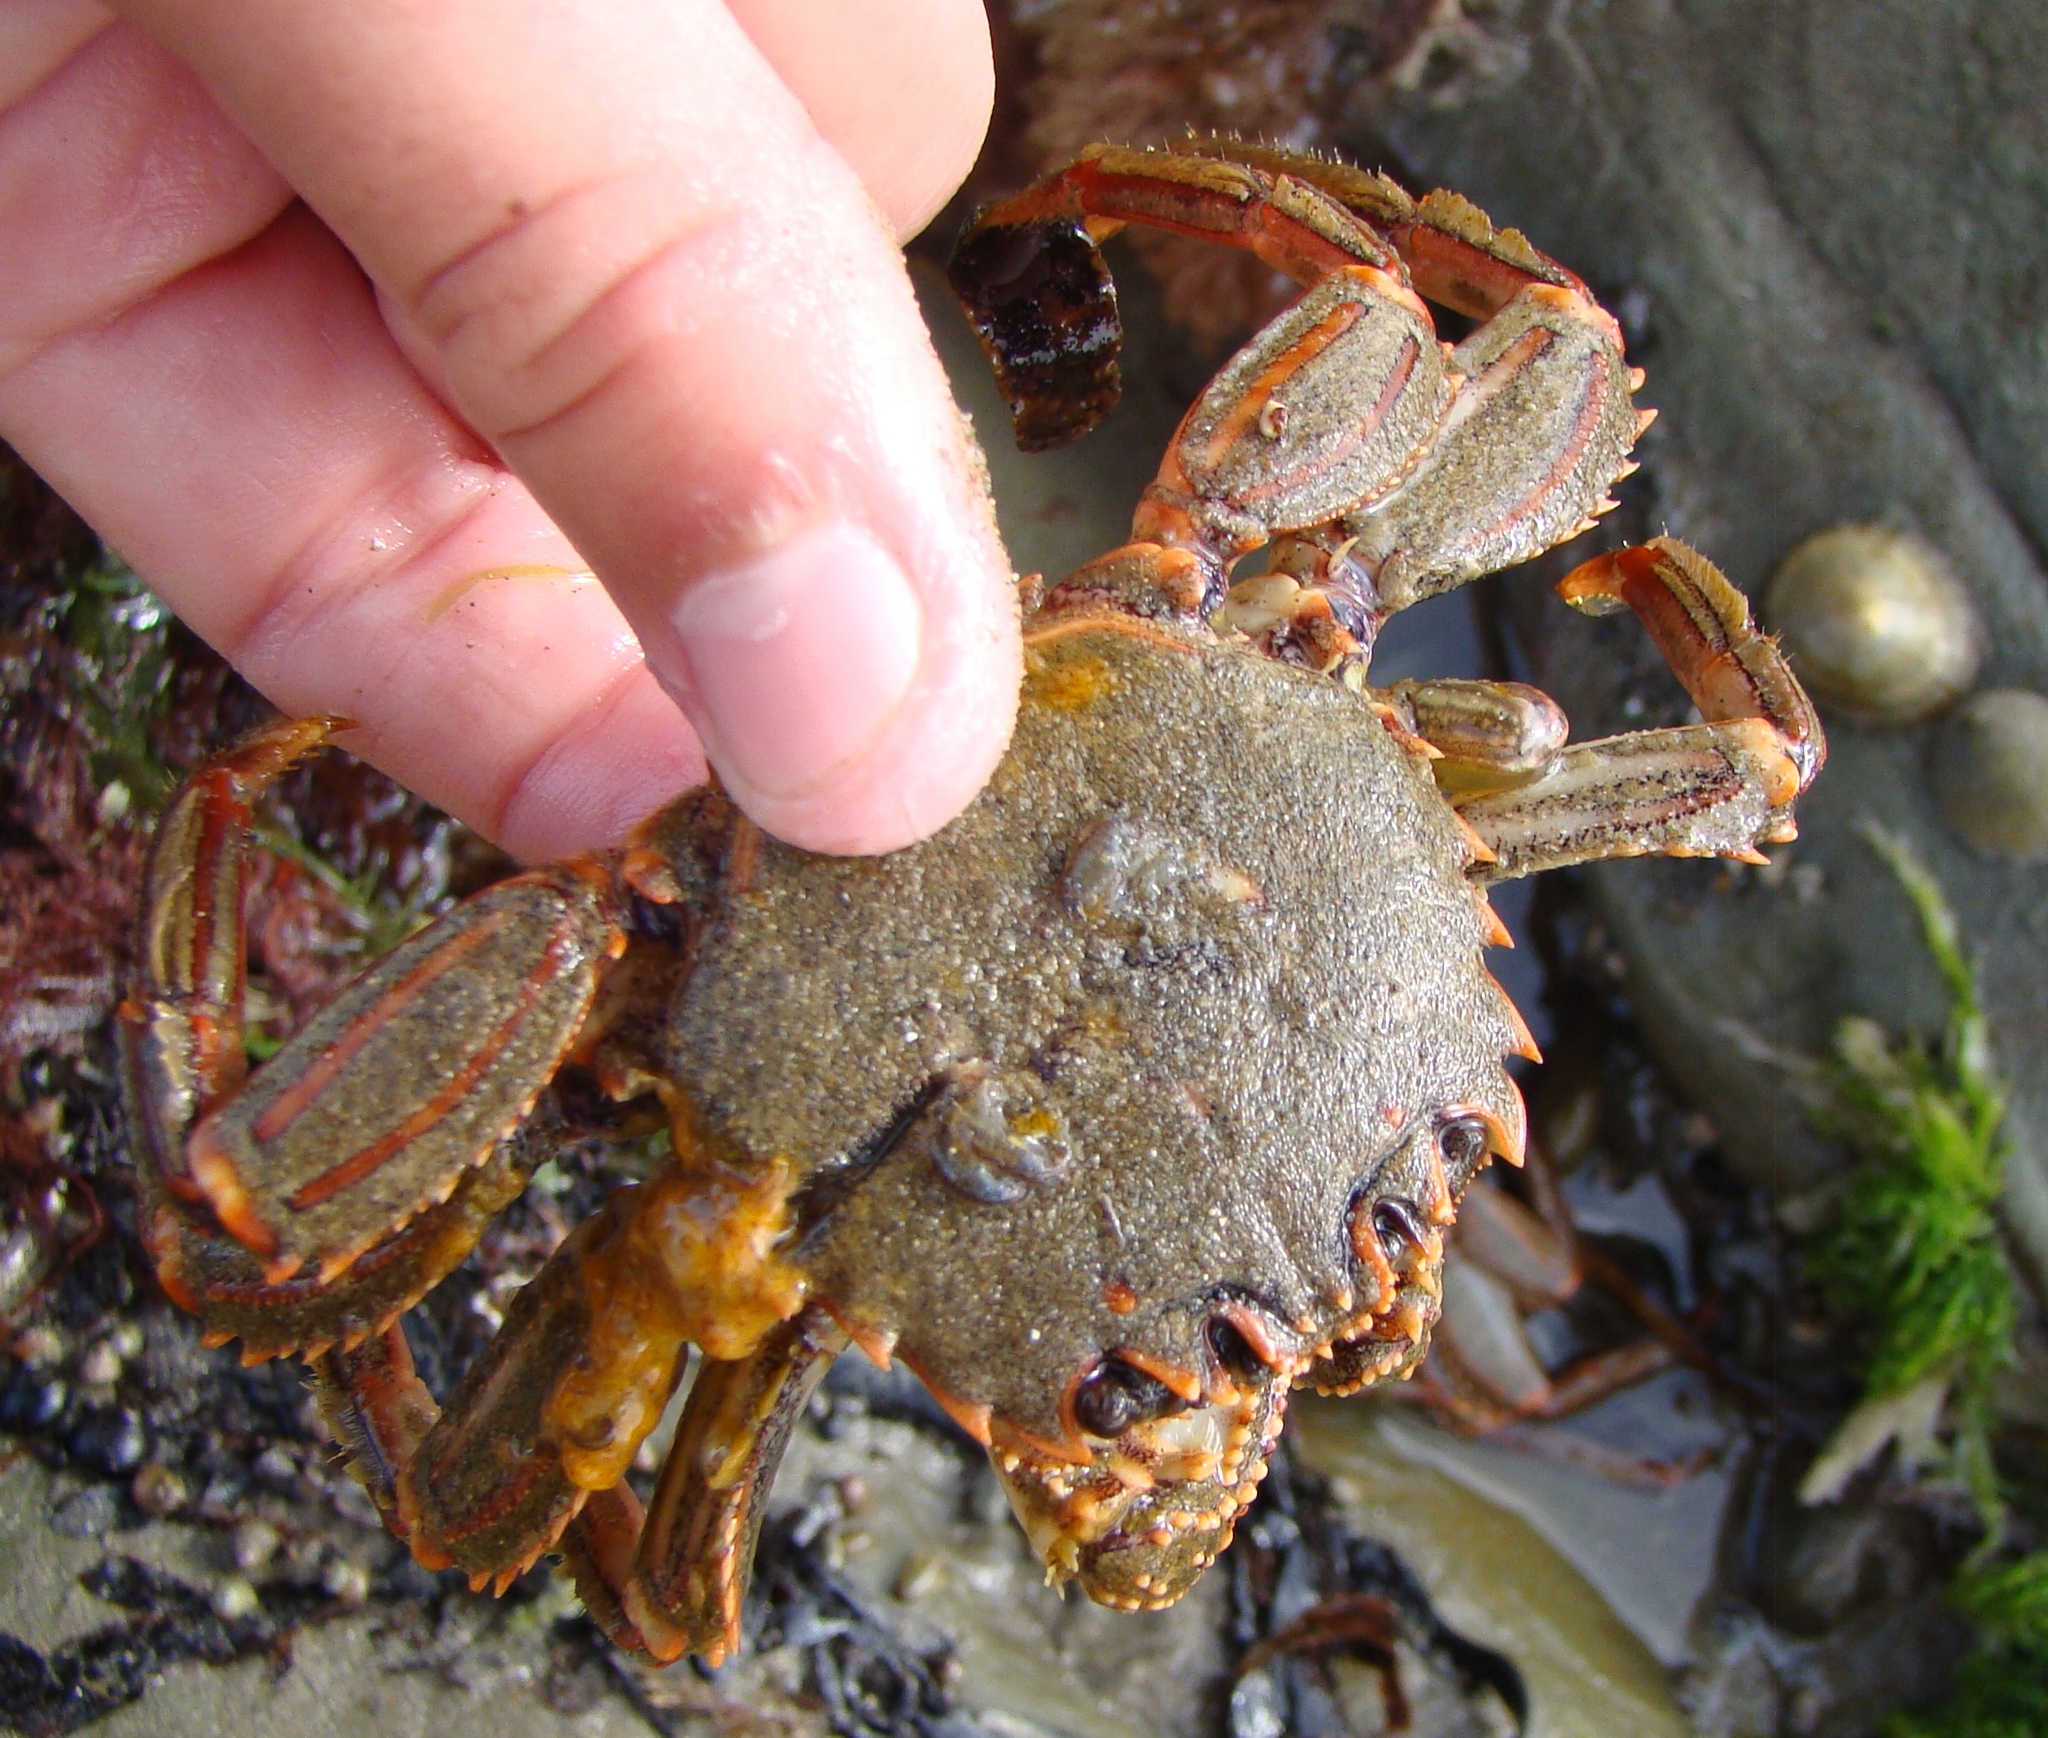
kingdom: Animalia
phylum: Arthropoda
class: Malacostraca
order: Decapoda
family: Plagusiidae
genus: Guinusia
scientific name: Guinusia chabrus
